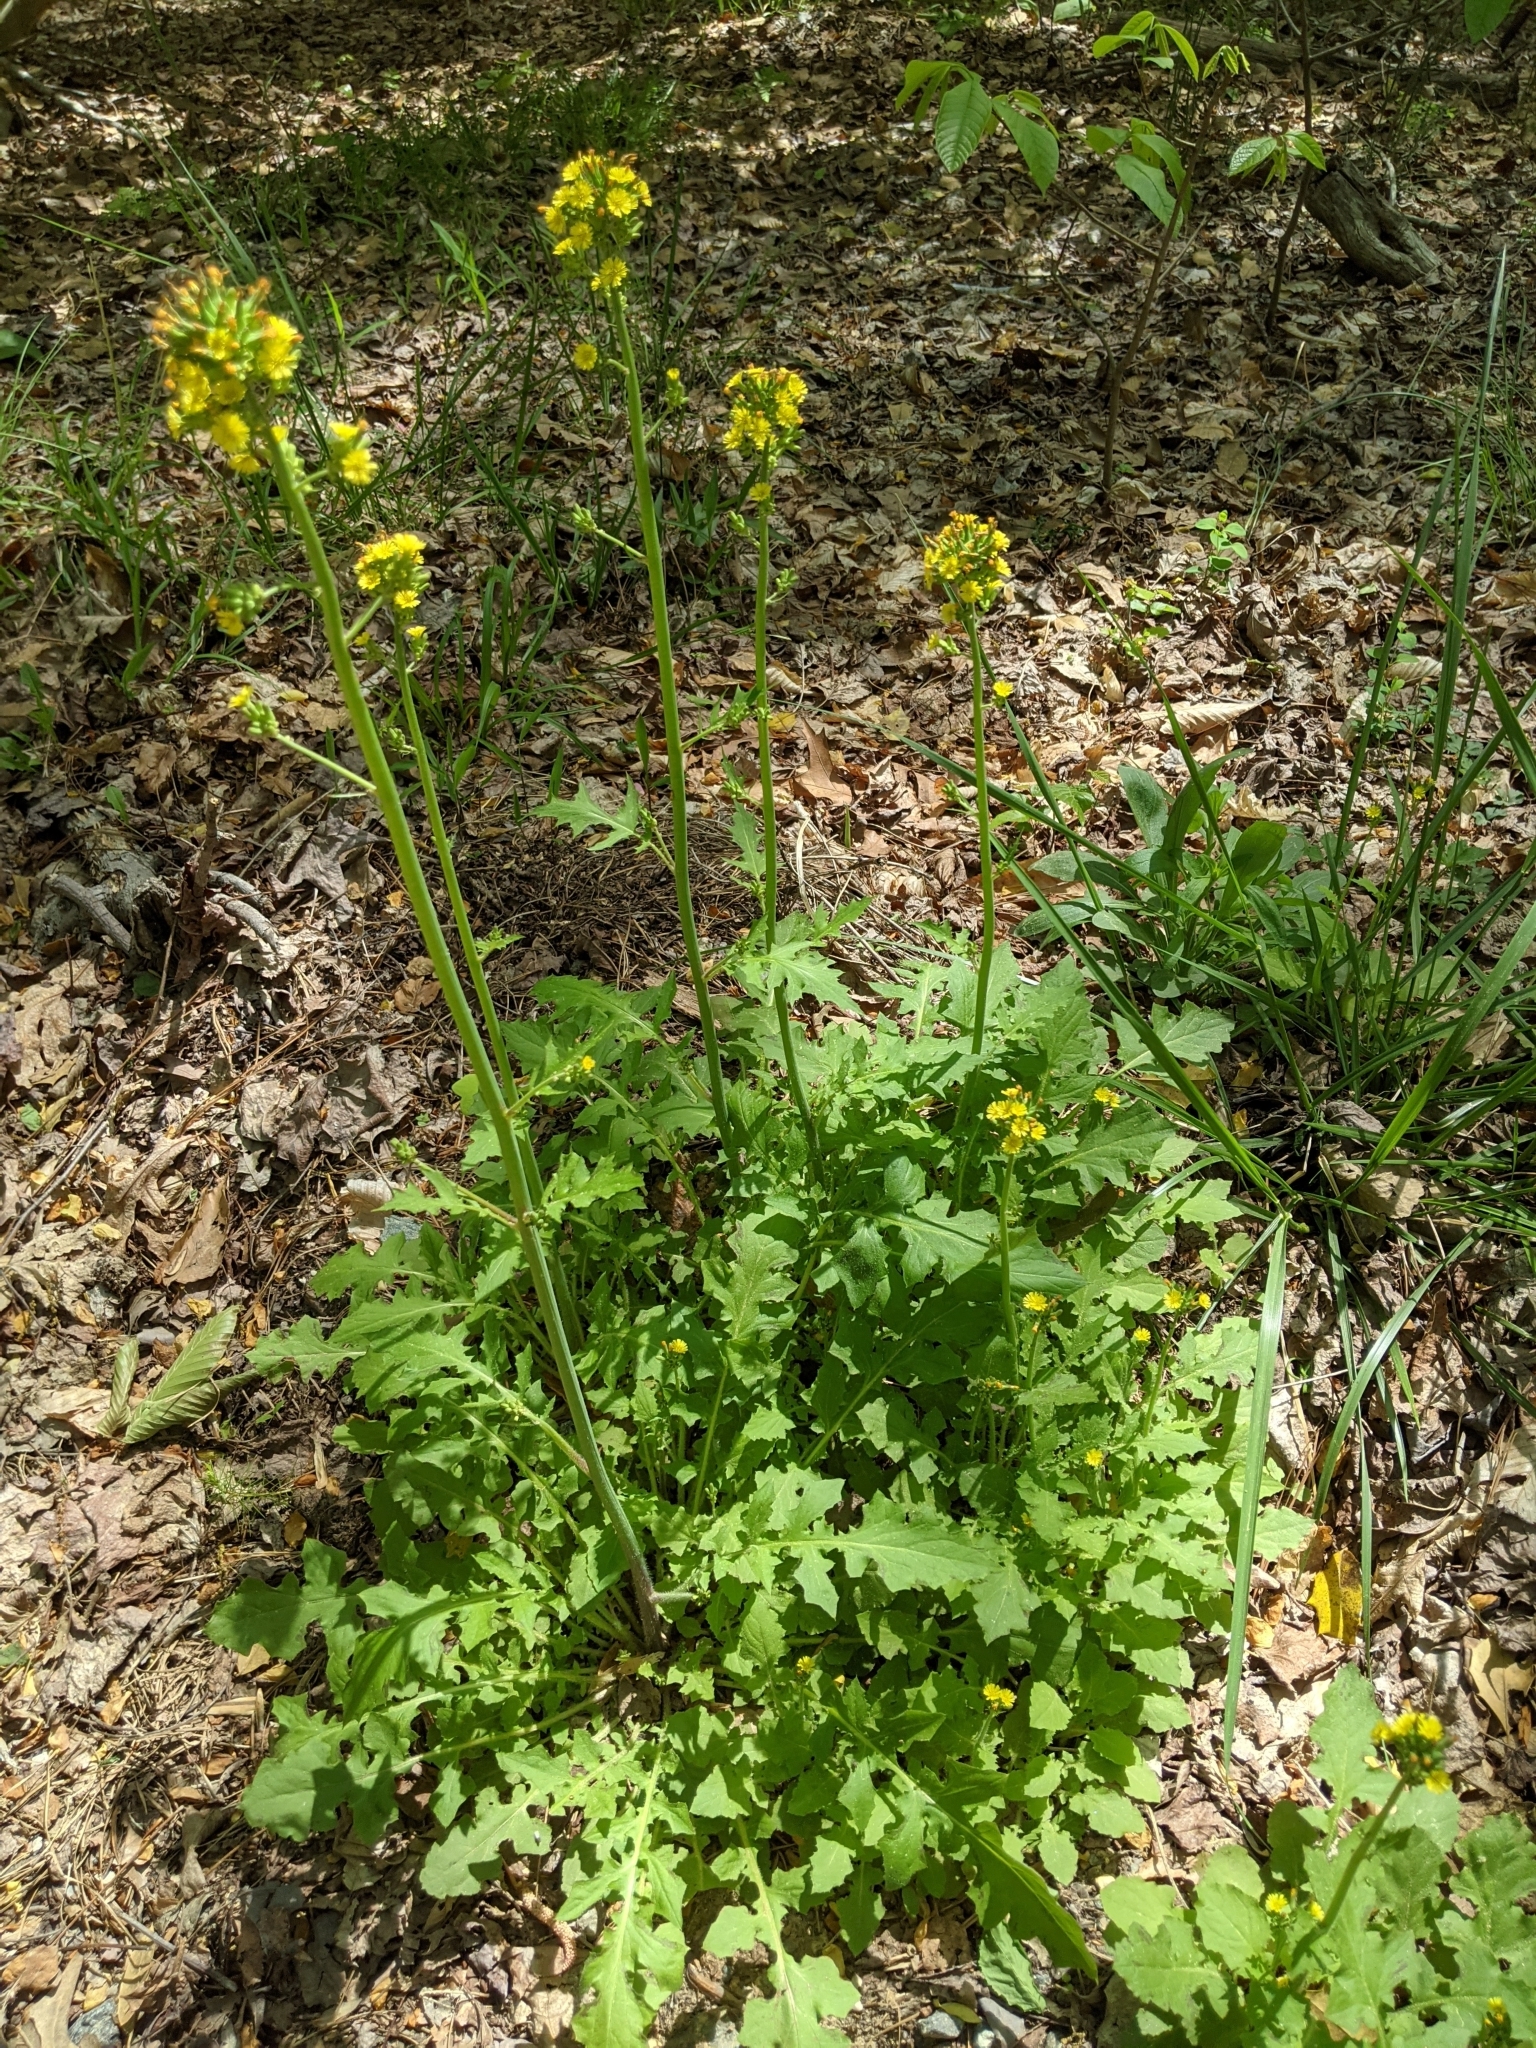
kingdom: Plantae
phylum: Tracheophyta
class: Magnoliopsida
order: Asterales
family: Asteraceae
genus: Youngia
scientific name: Youngia japonica
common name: Oriental false hawksbeard
